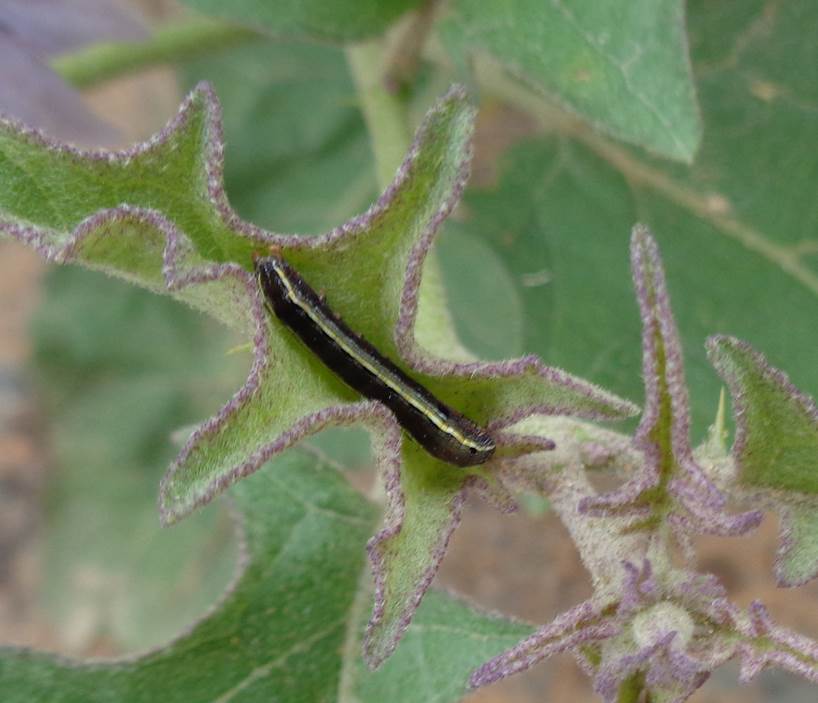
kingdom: Animalia
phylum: Arthropoda
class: Insecta
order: Lepidoptera
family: Noctuidae
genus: Spodoptera
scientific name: Spodoptera ornithogalli
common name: Yellow-striped armyworm
